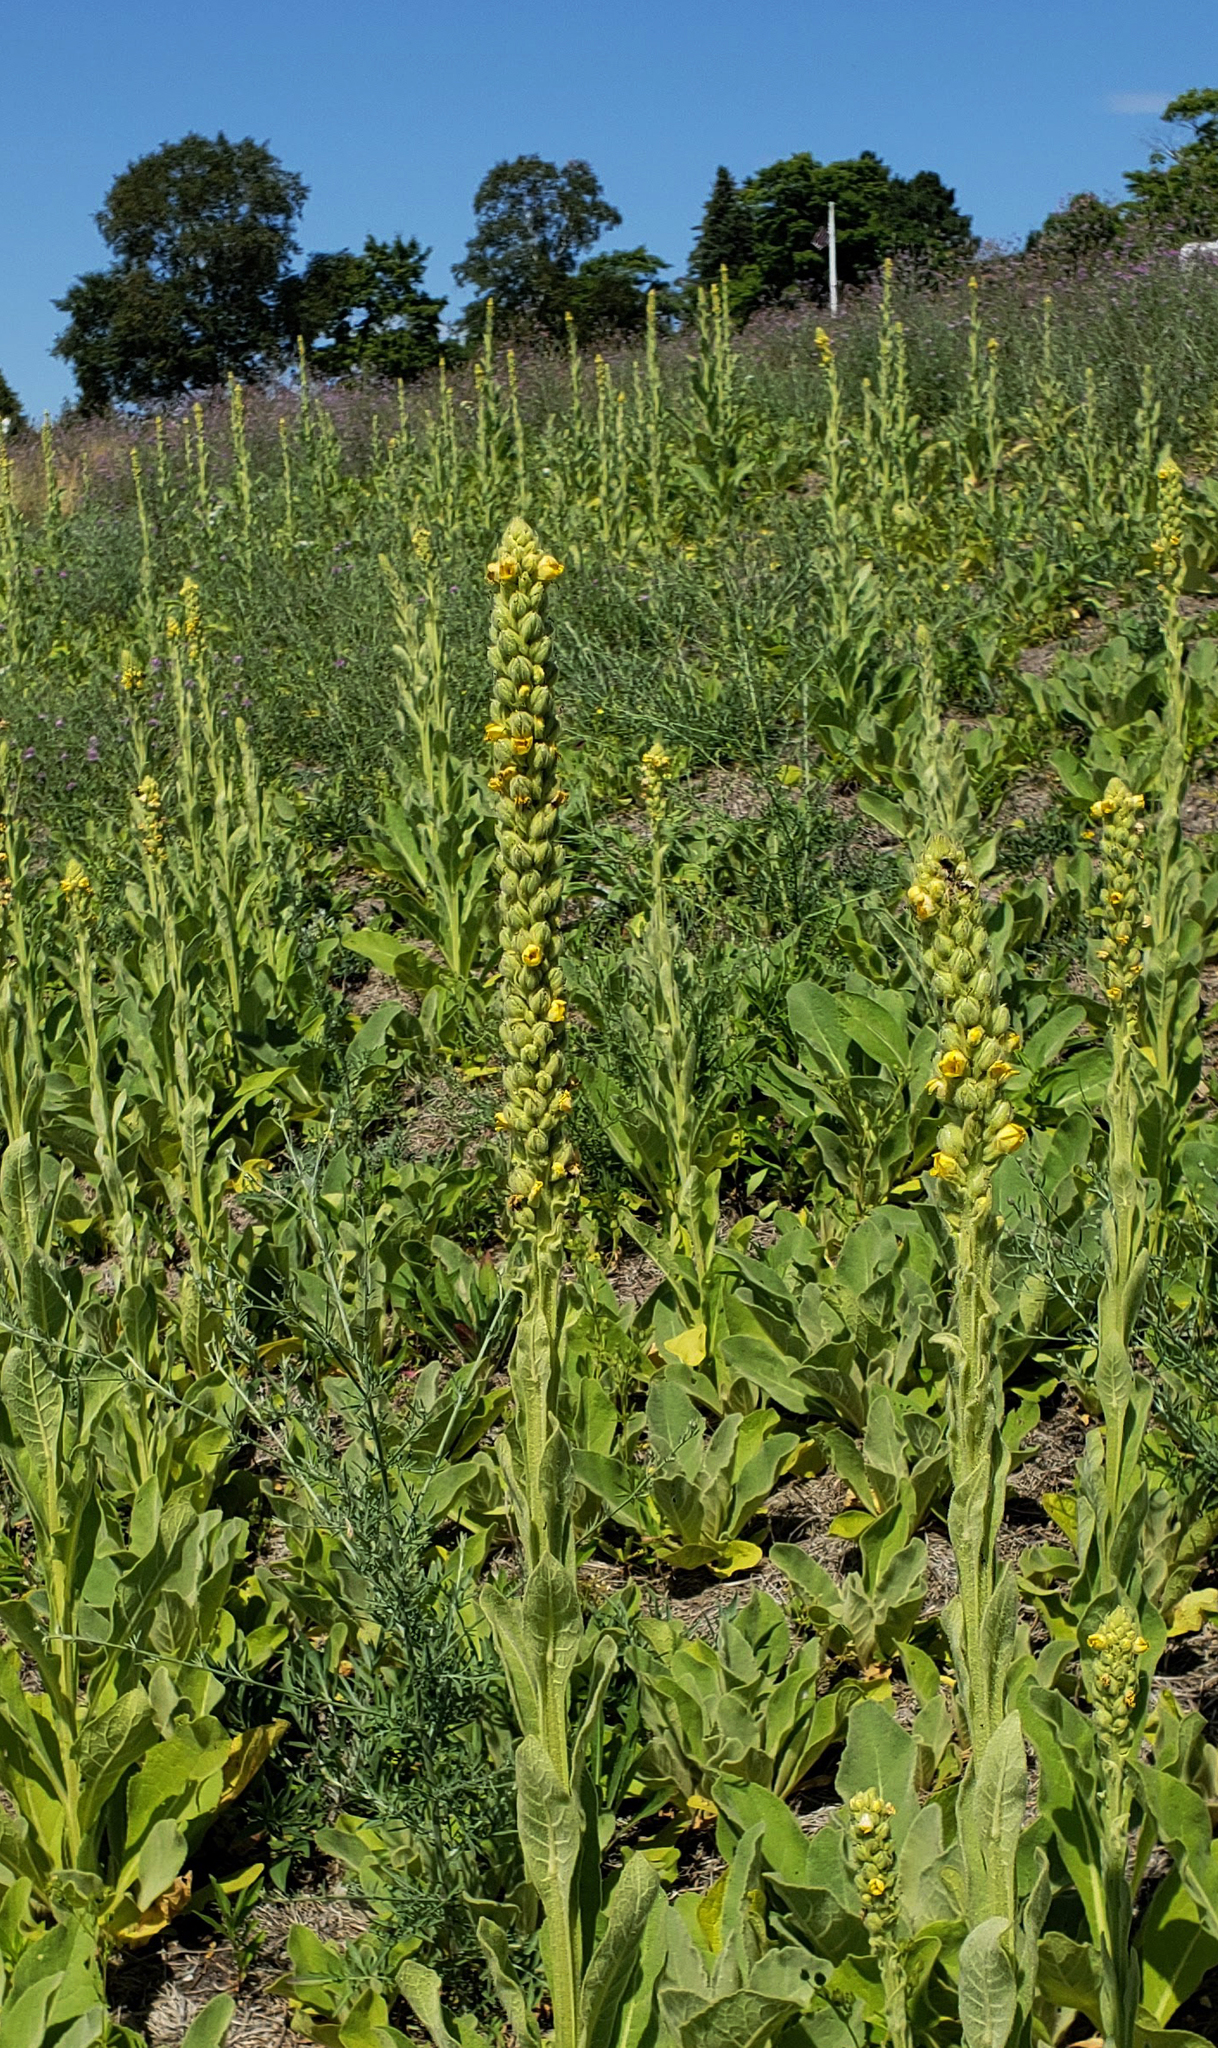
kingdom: Plantae
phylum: Tracheophyta
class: Magnoliopsida
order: Lamiales
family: Scrophulariaceae
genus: Verbascum
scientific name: Verbascum thapsus
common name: Common mullein
